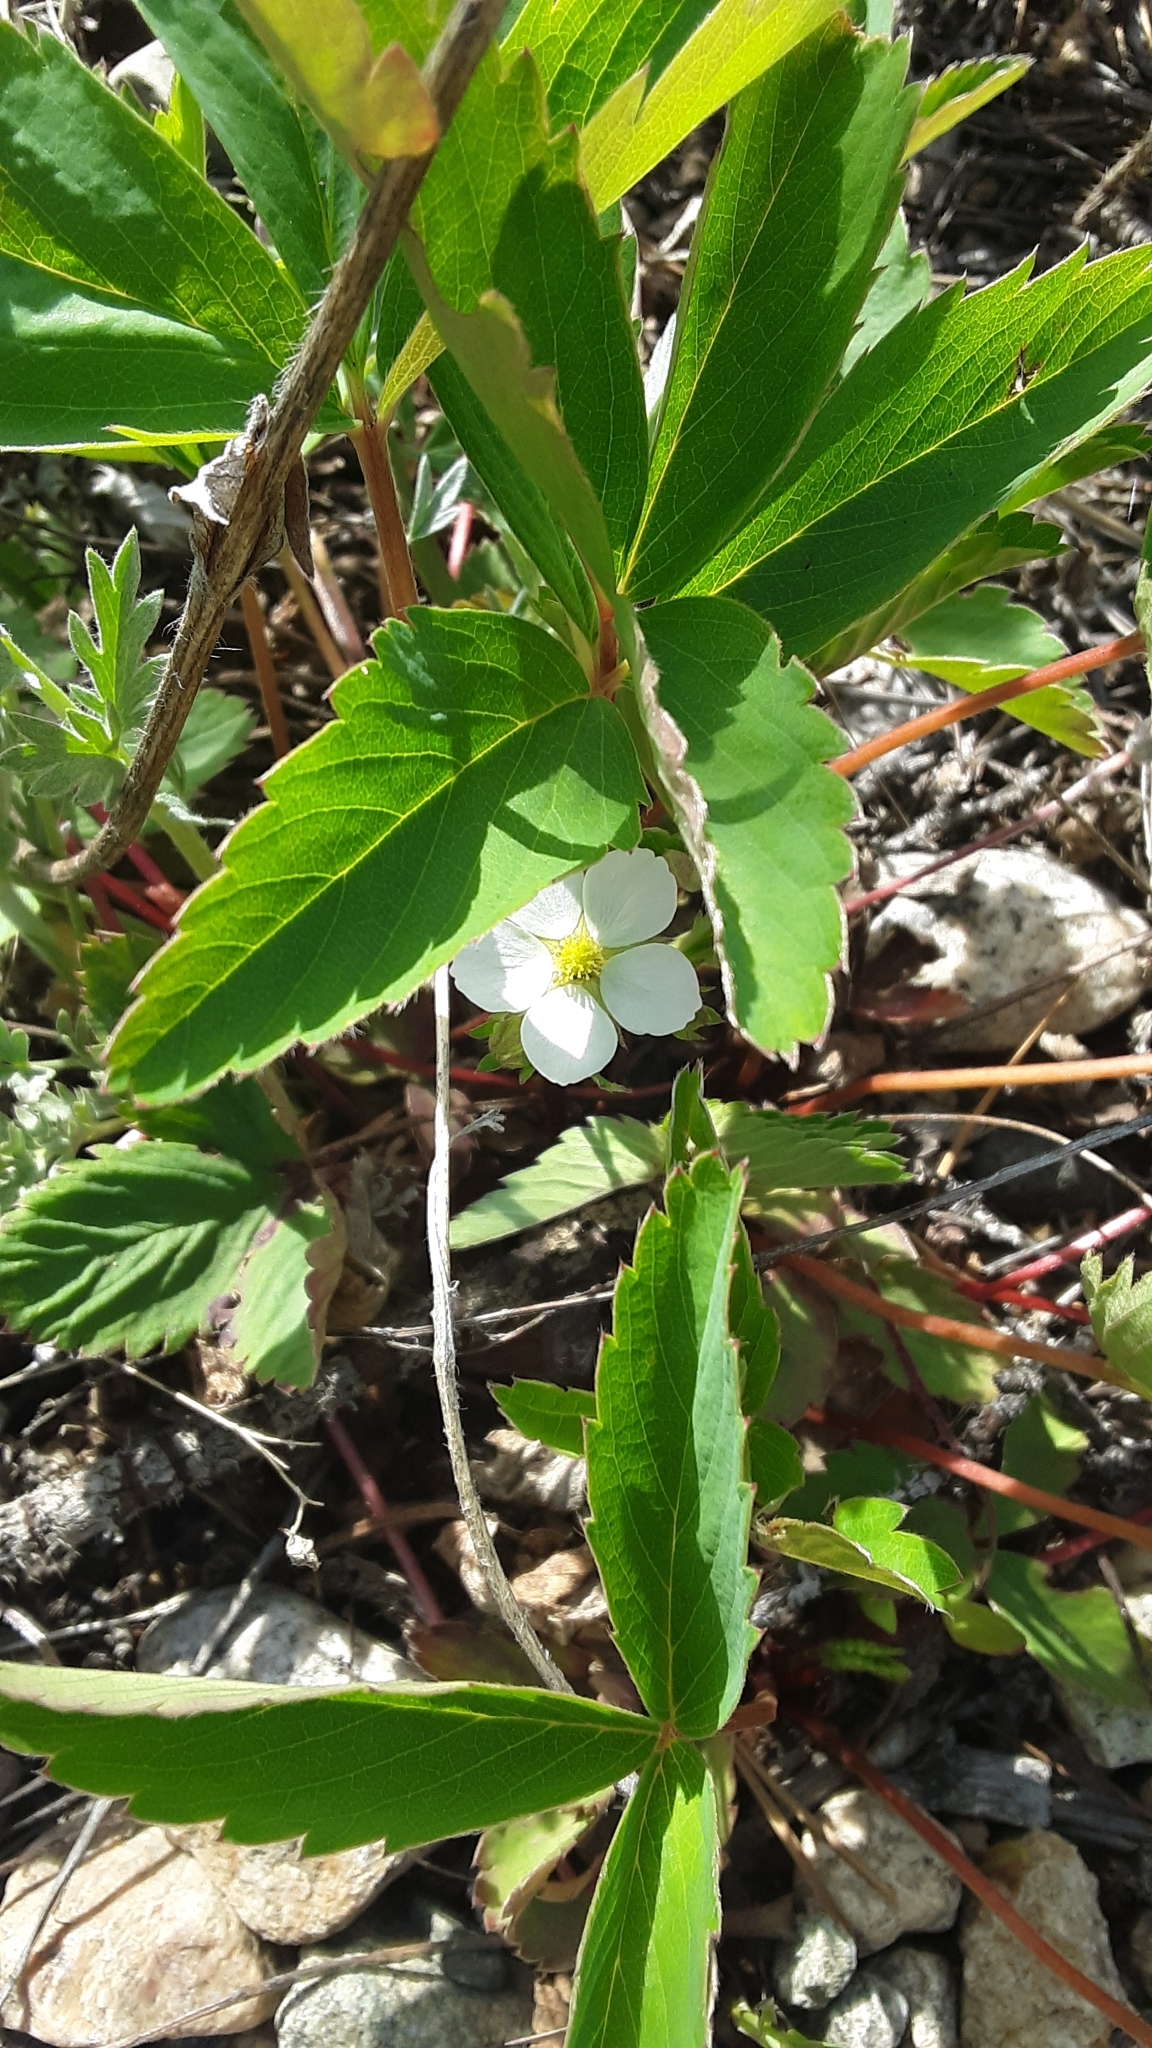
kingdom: Plantae
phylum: Tracheophyta
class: Magnoliopsida
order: Rosales
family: Rosaceae
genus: Fragaria
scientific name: Fragaria virginiana
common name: Thickleaved wild strawberry
